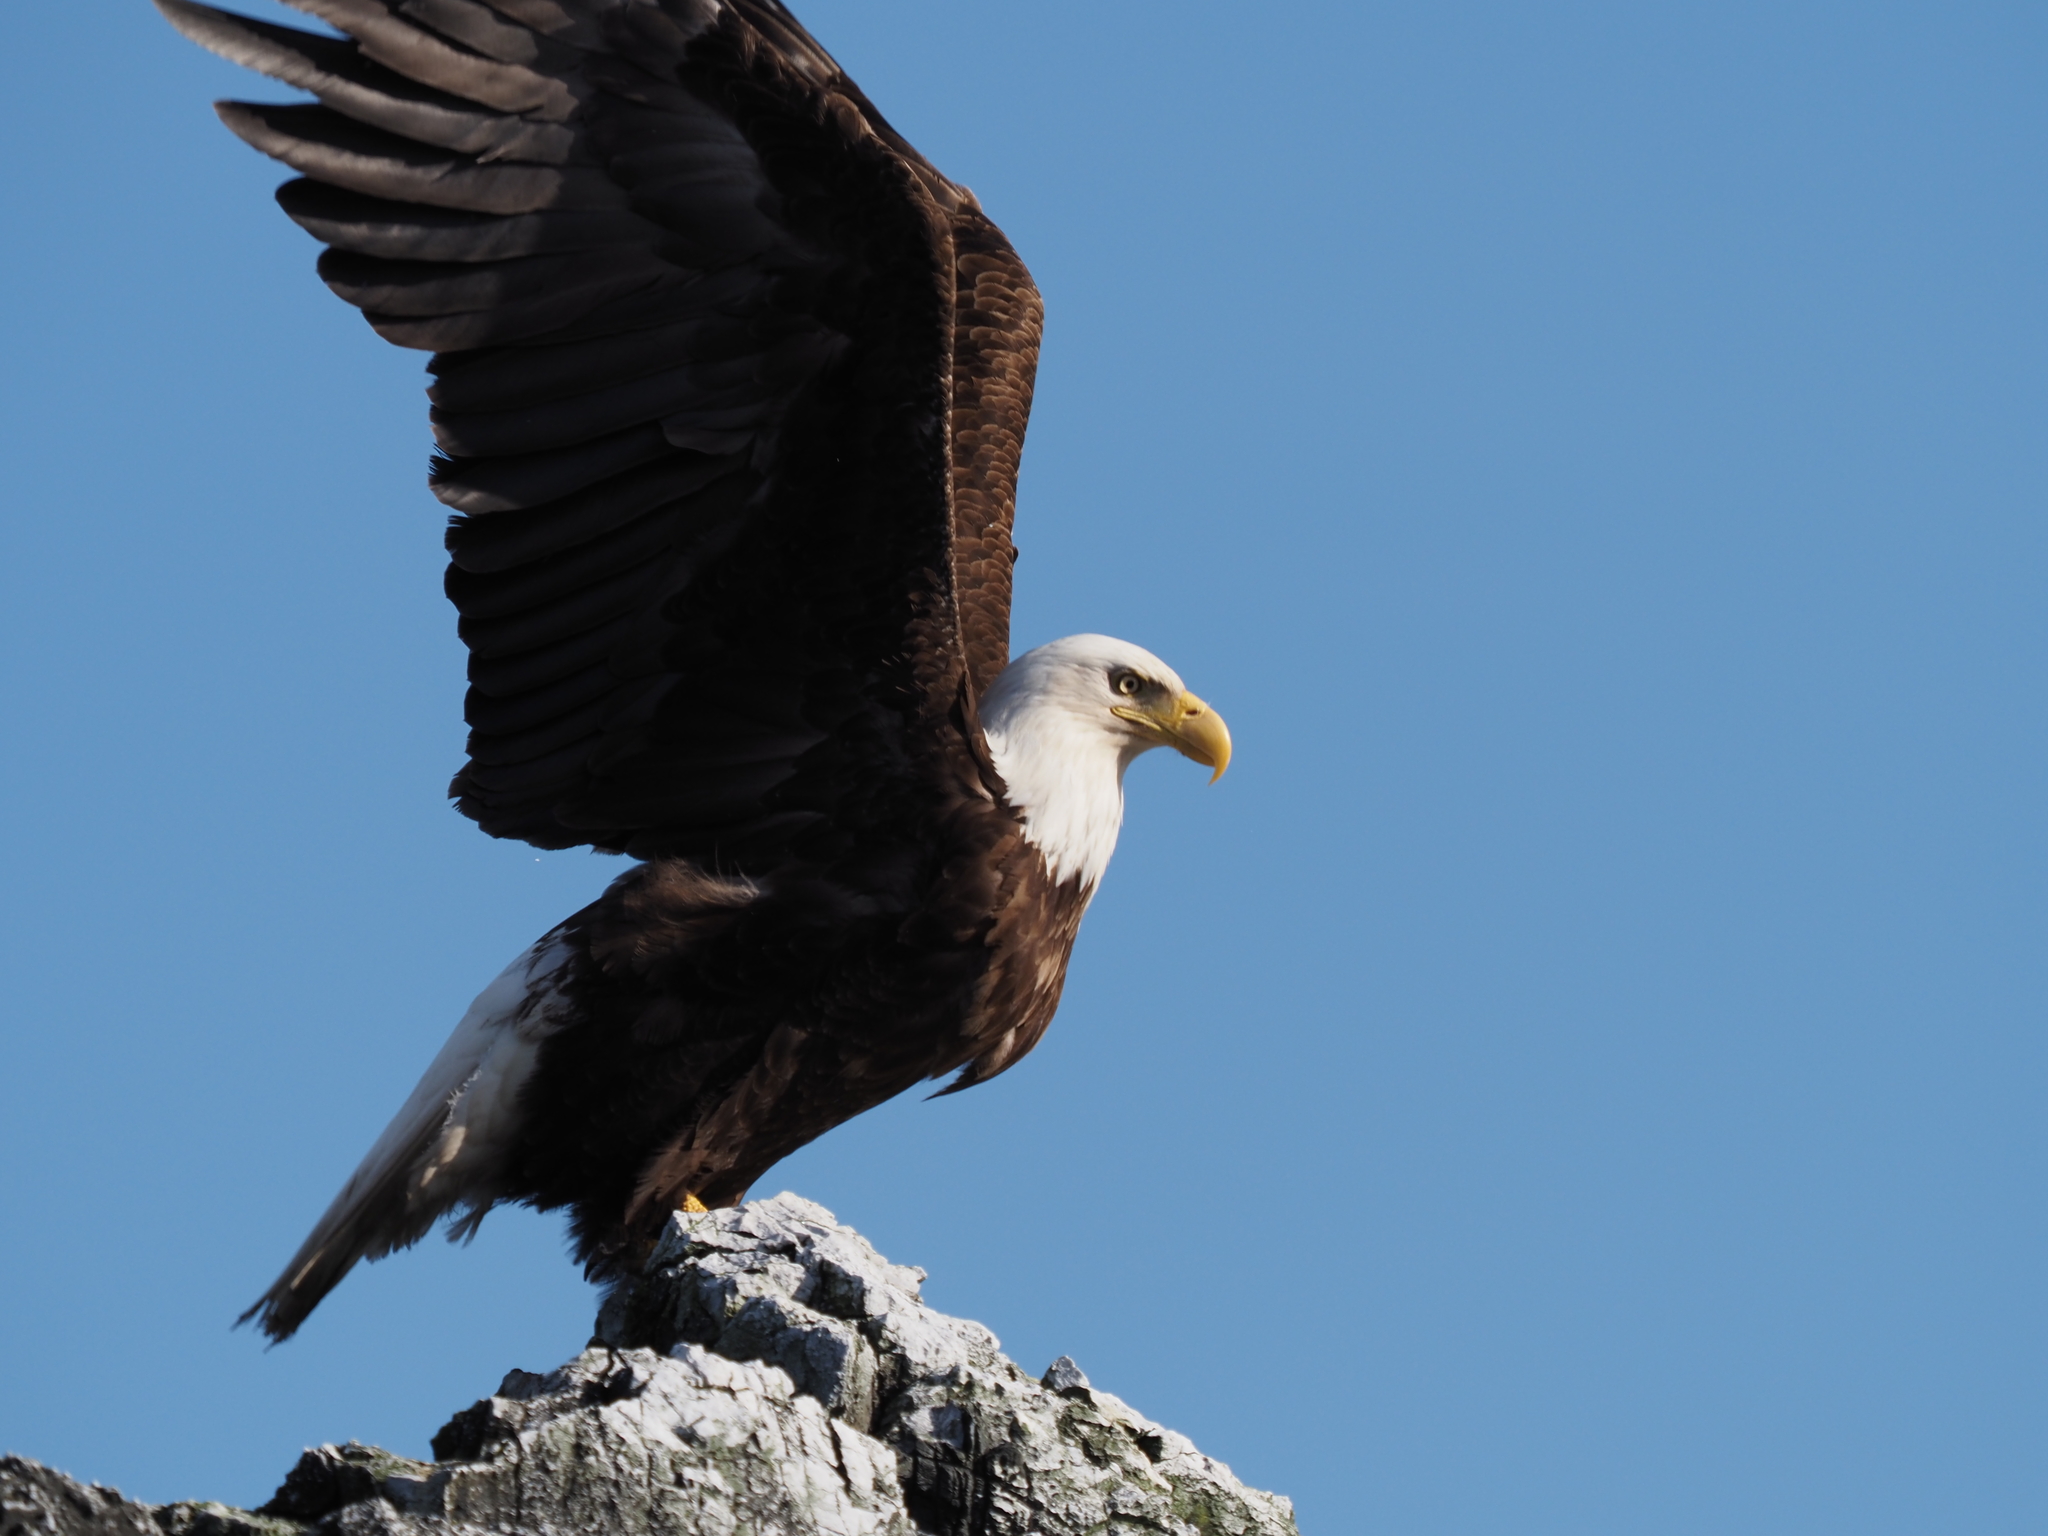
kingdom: Animalia
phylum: Chordata
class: Aves
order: Accipitriformes
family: Accipitridae
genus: Haliaeetus
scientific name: Haliaeetus leucocephalus
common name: Bald eagle
